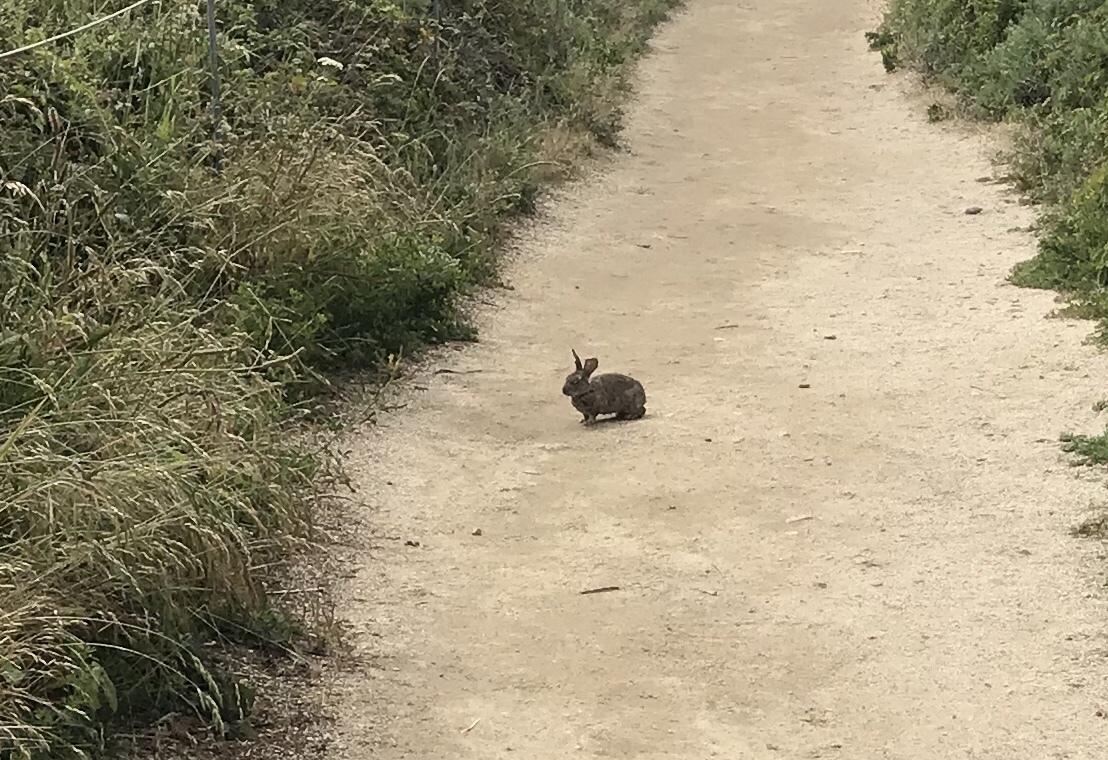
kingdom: Animalia
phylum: Chordata
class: Mammalia
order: Lagomorpha
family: Leporidae
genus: Sylvilagus
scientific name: Sylvilagus bachmani
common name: Brush rabbit
